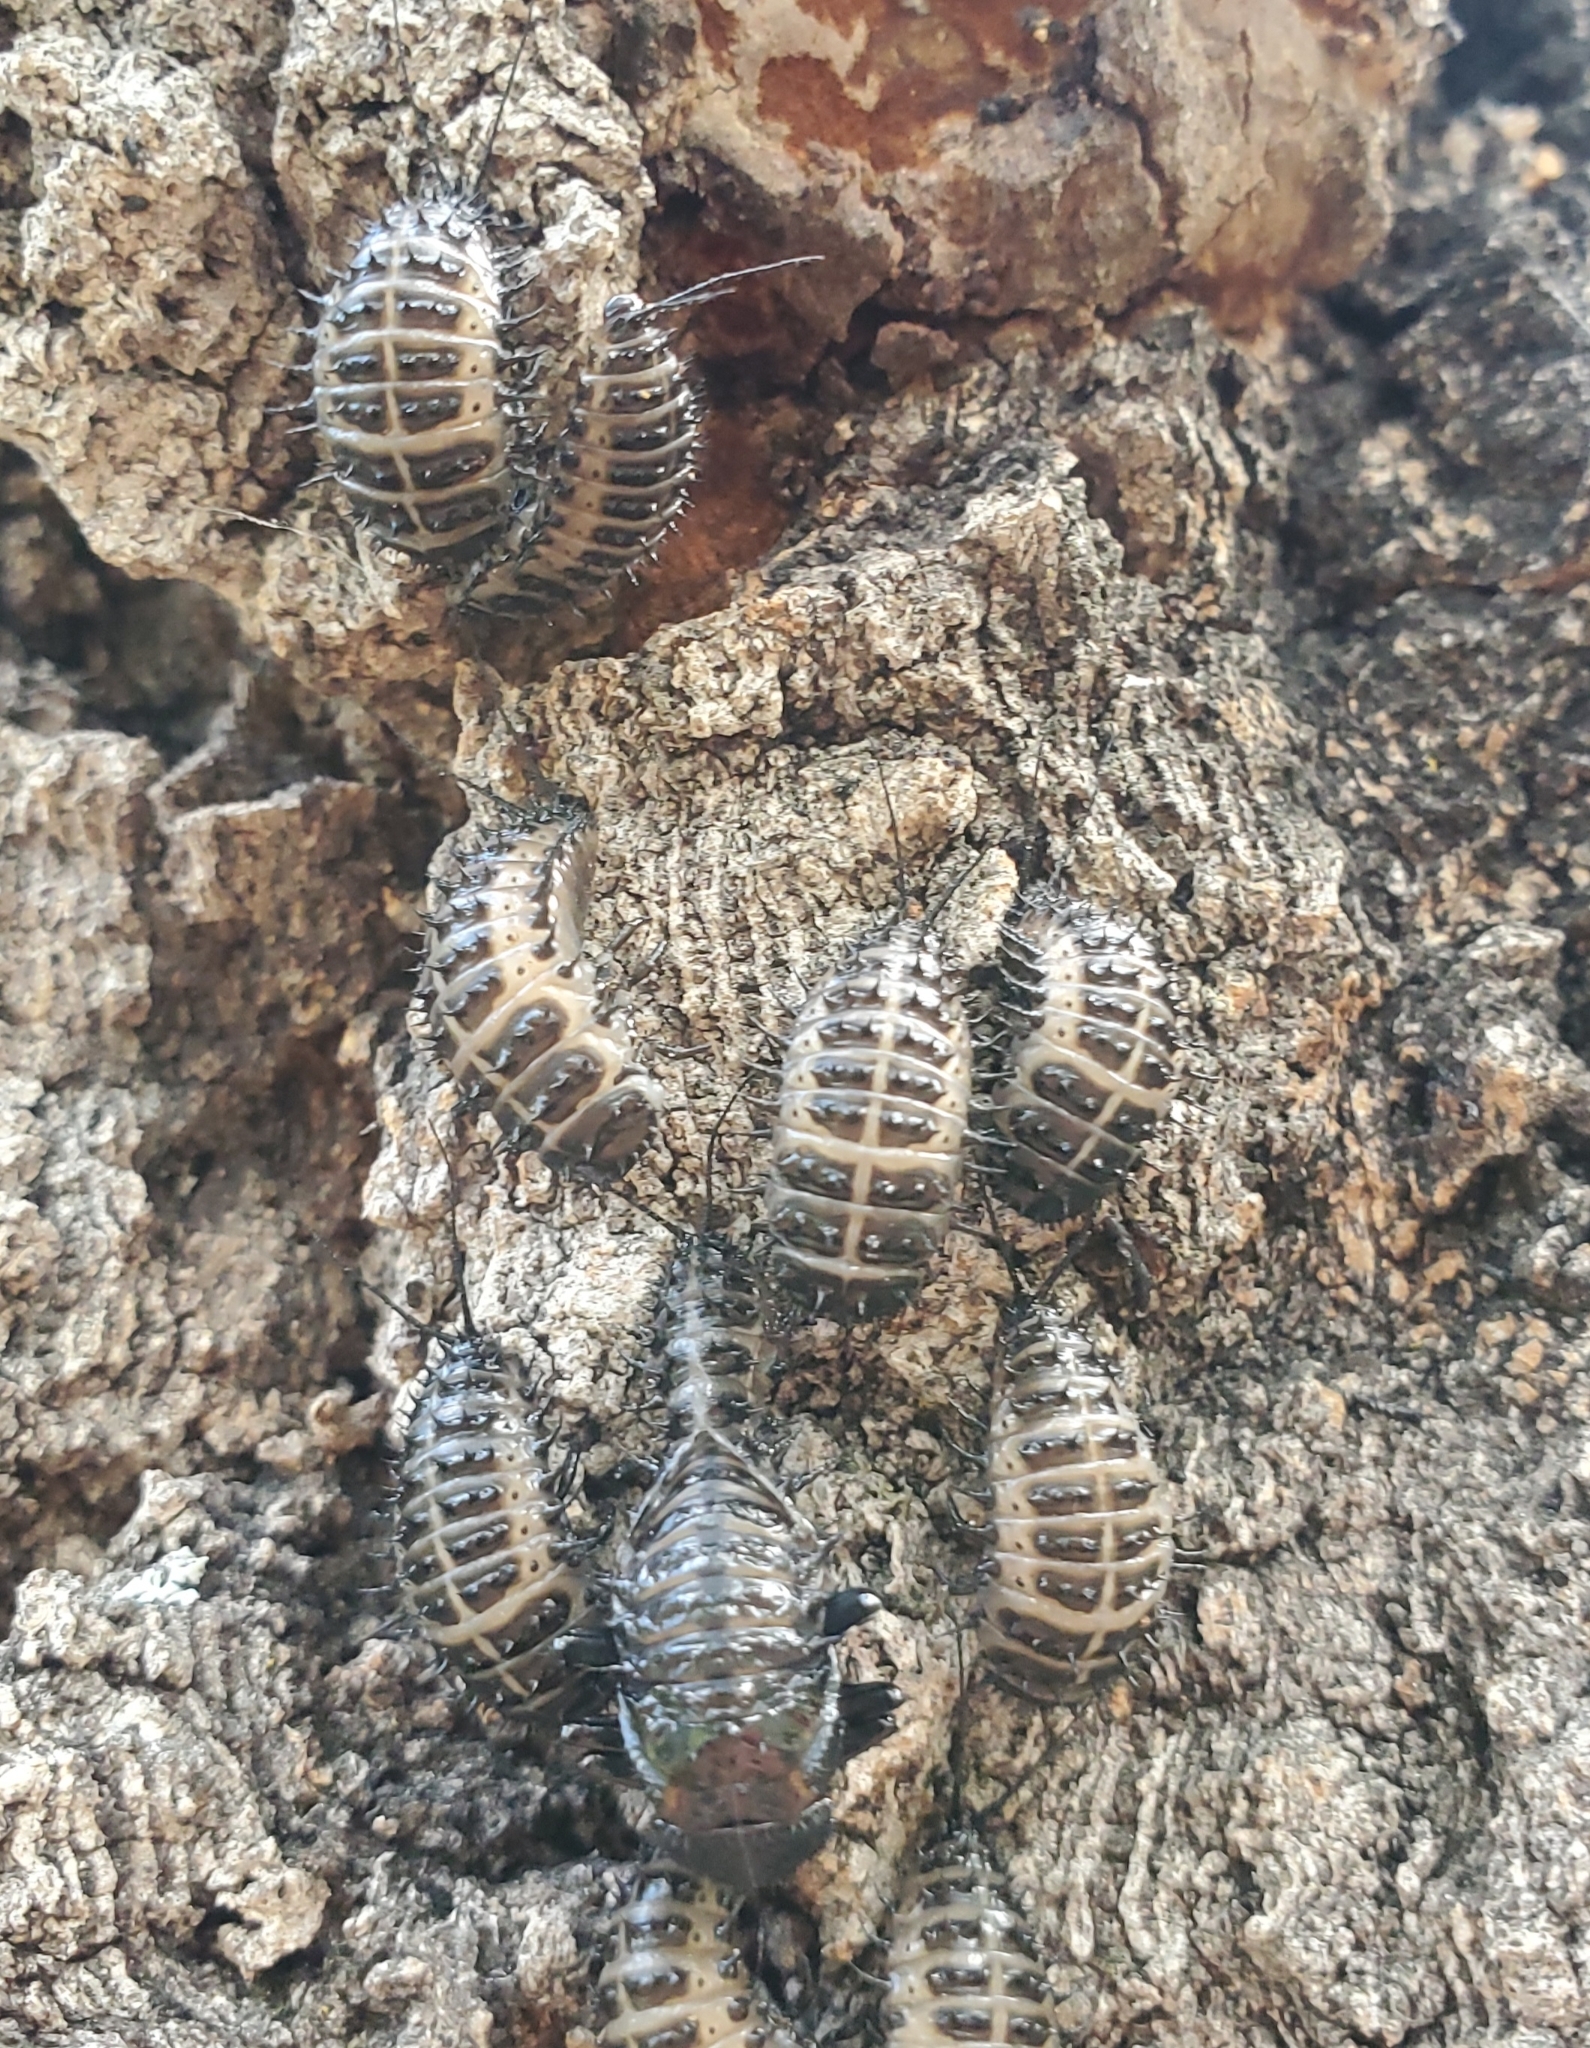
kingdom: Animalia
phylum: Arthropoda
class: Insecta
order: Coleoptera
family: Erotylidae
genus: Gibbifer
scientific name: Gibbifer californicus
